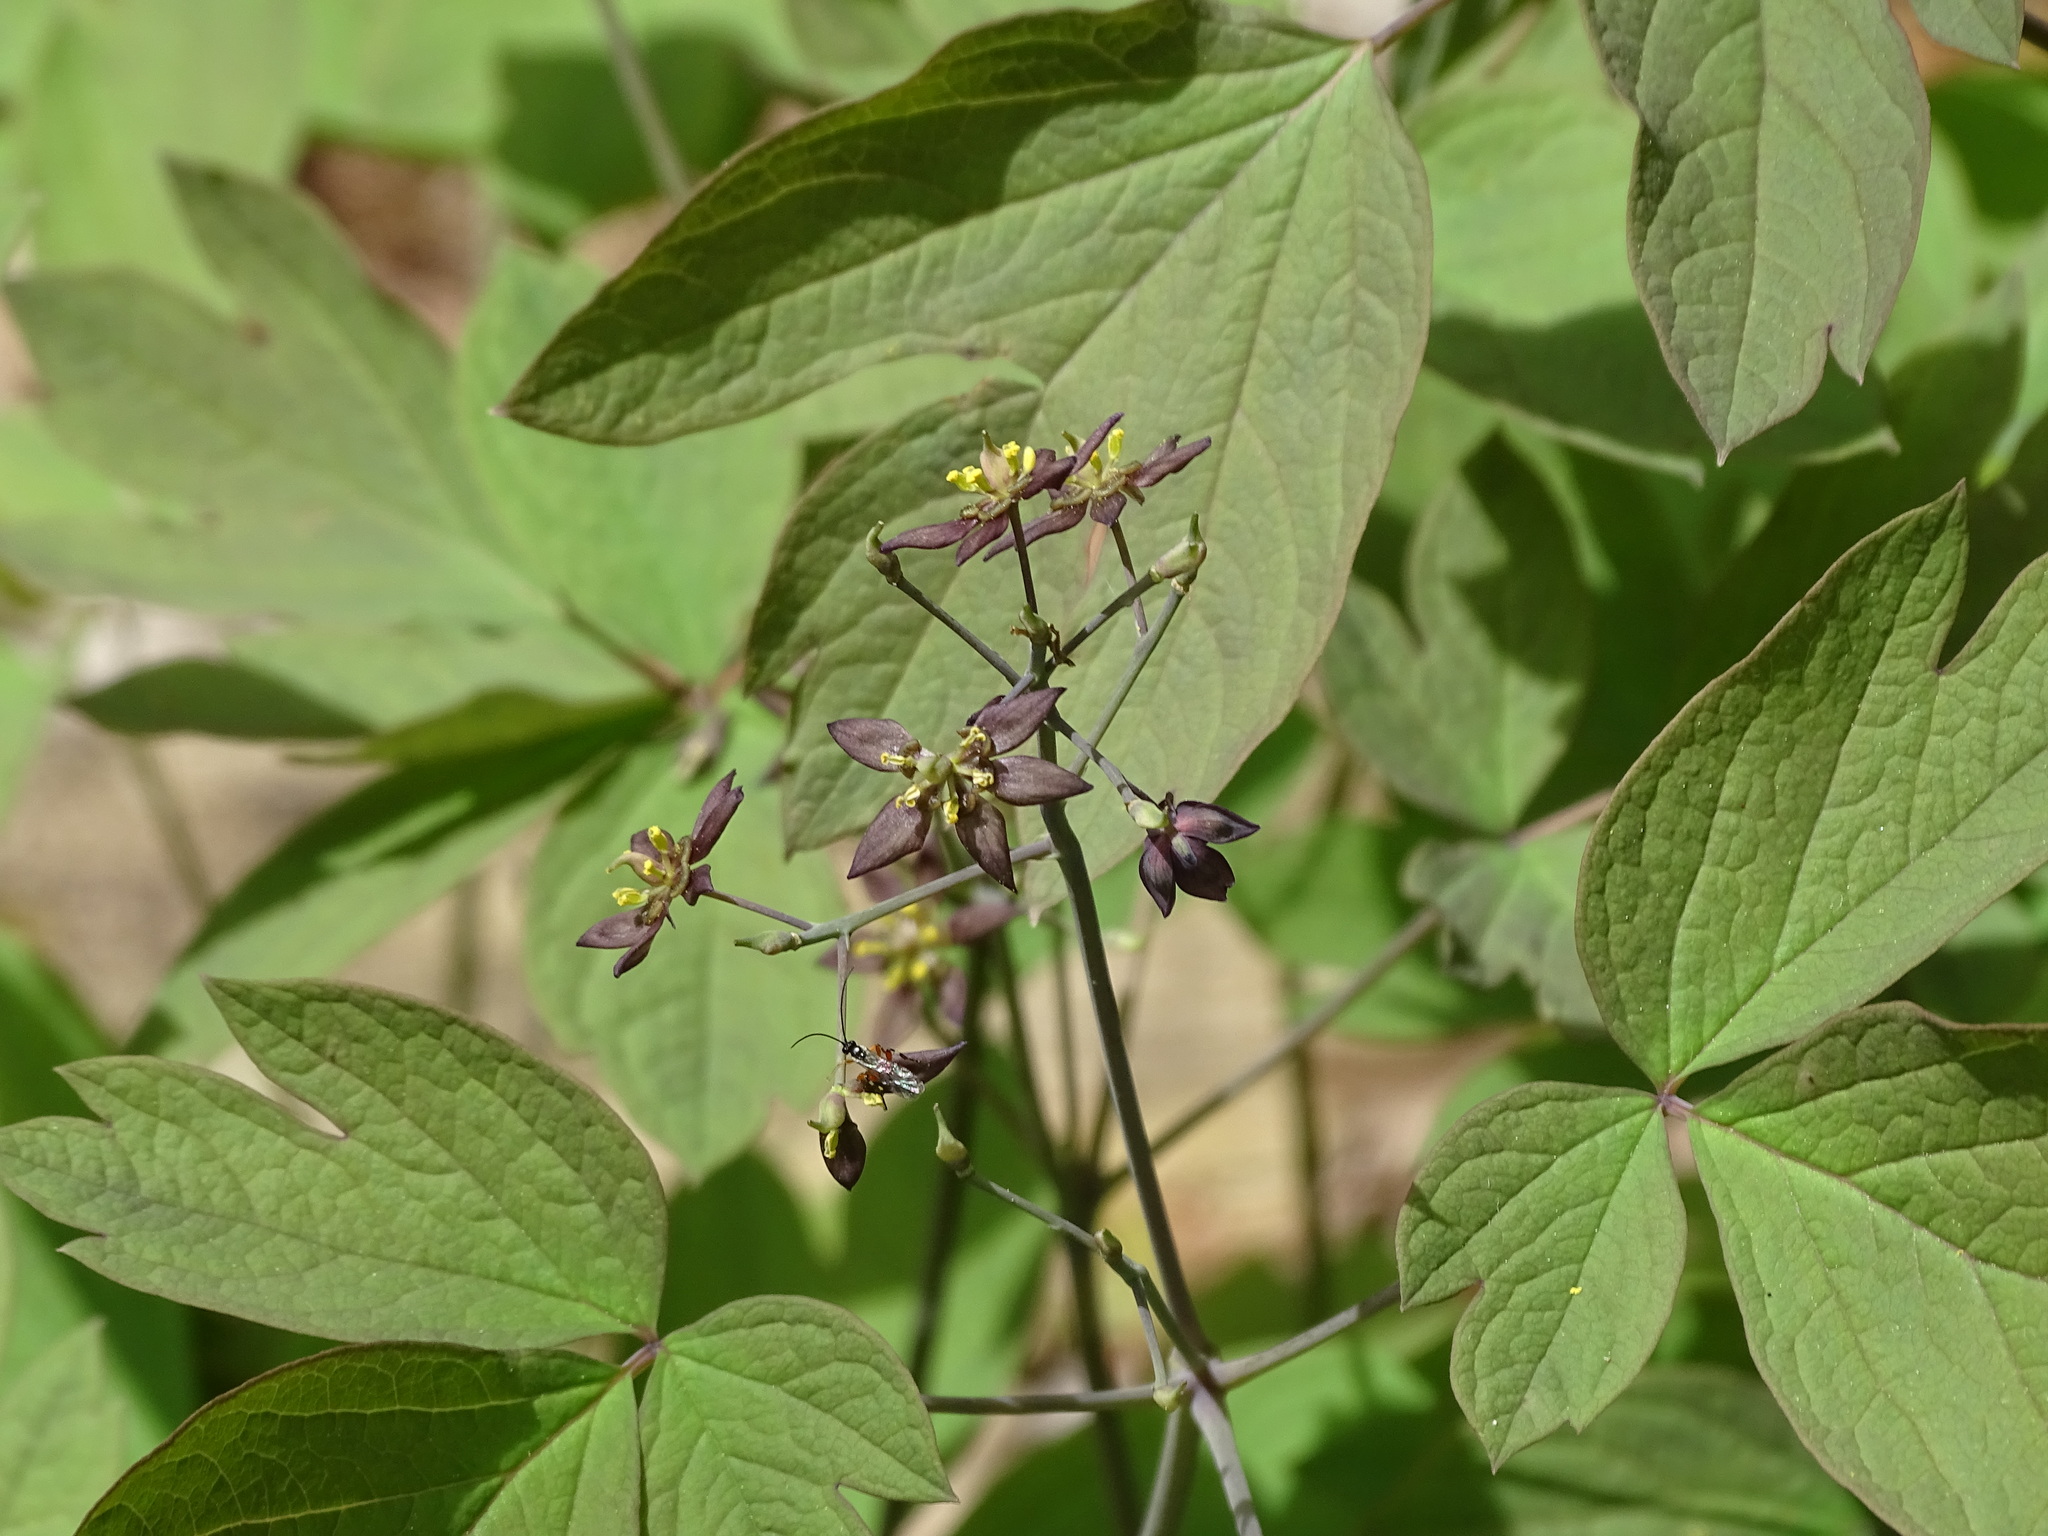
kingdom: Plantae
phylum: Tracheophyta
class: Magnoliopsida
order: Ranunculales
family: Berberidaceae
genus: Caulophyllum
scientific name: Caulophyllum giganteum
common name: Blue cohosh
